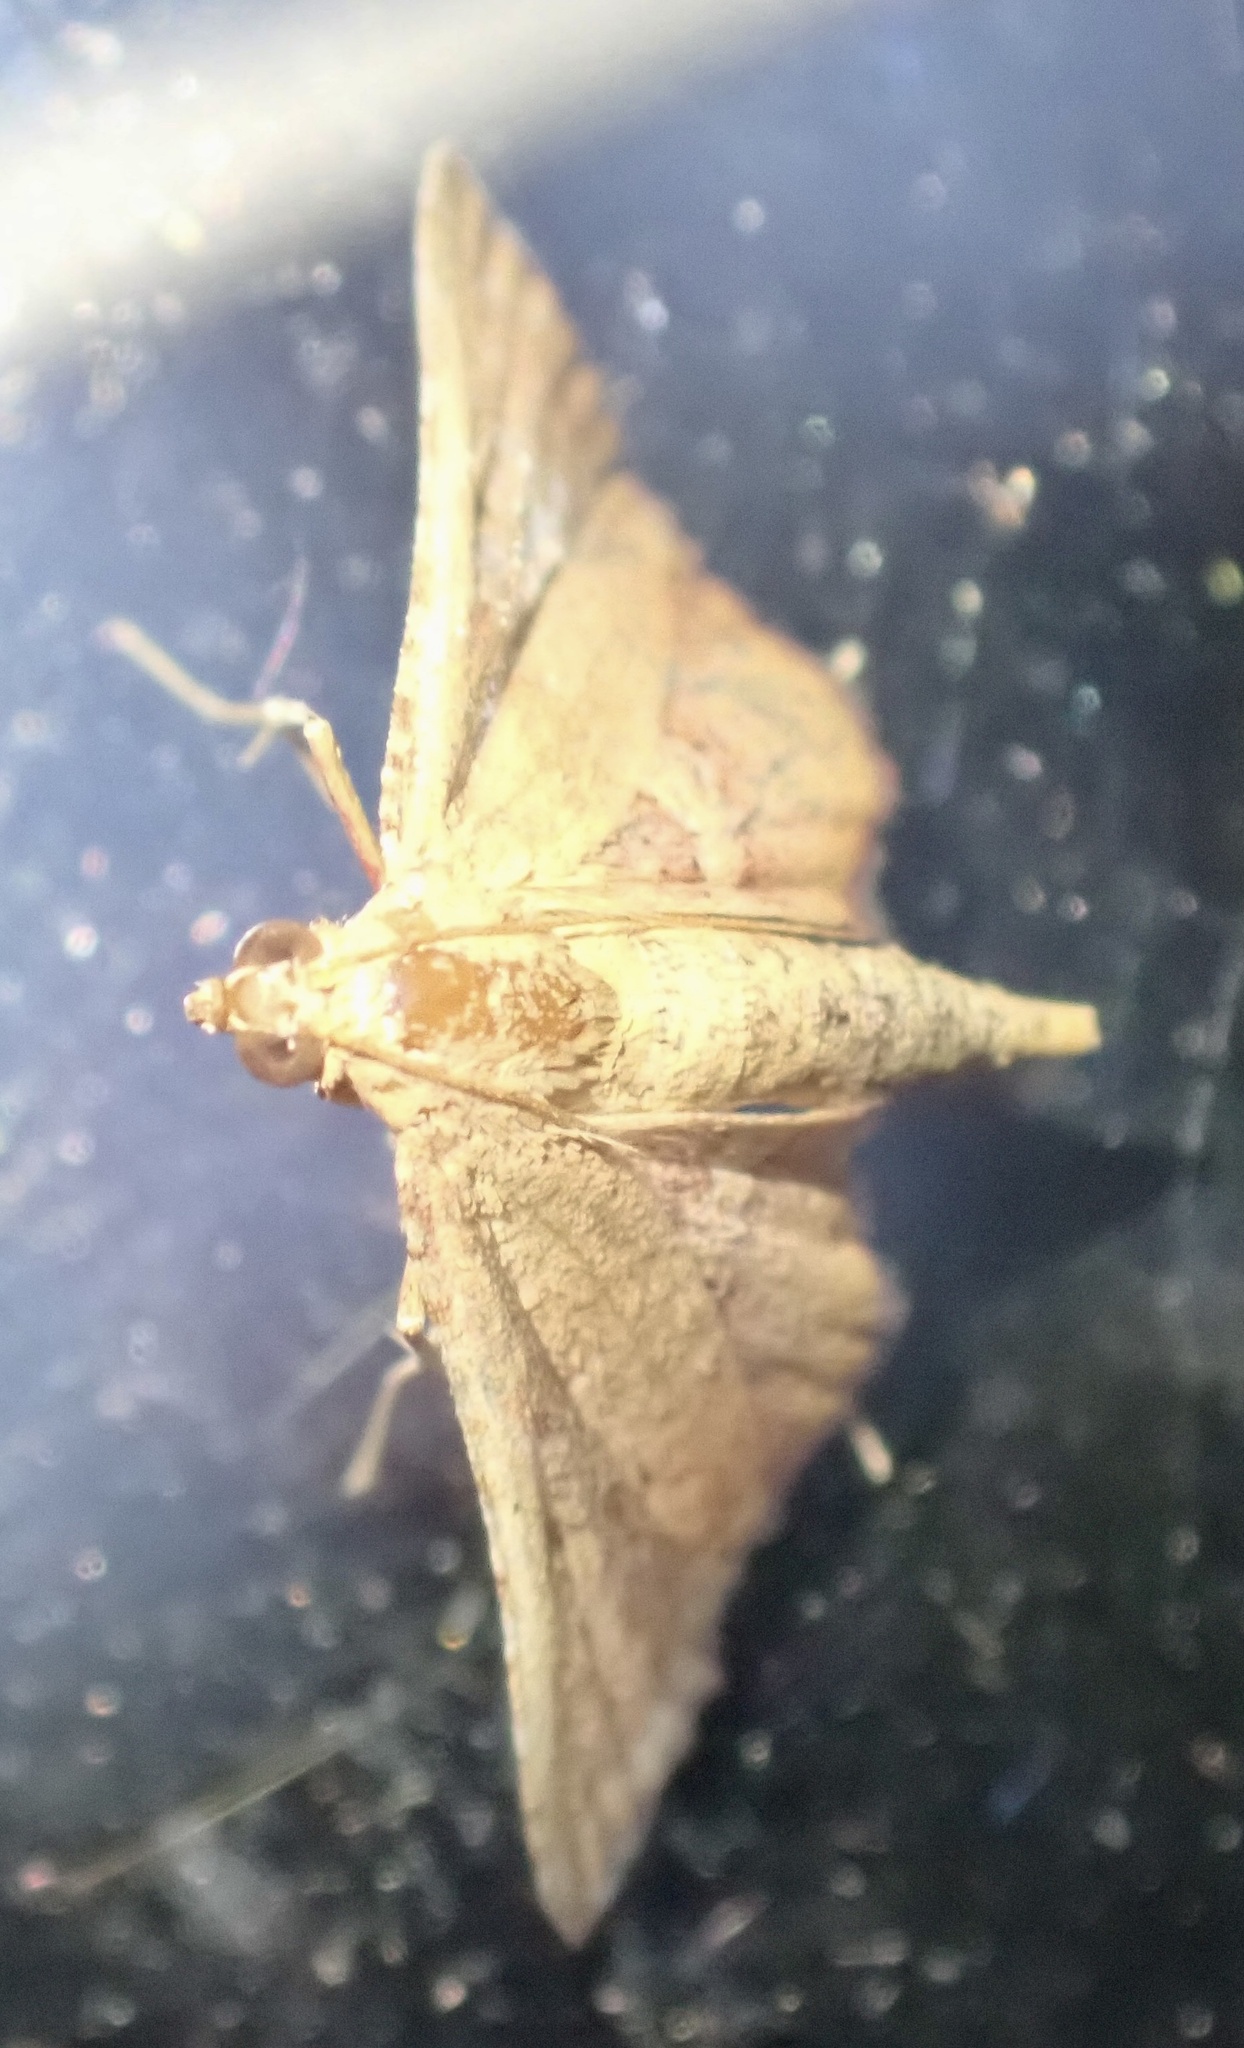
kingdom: Animalia
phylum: Arthropoda
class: Insecta
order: Lepidoptera
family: Pyralidae
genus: Endotricha
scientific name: Endotricha flammealis
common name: Rosy tabby
